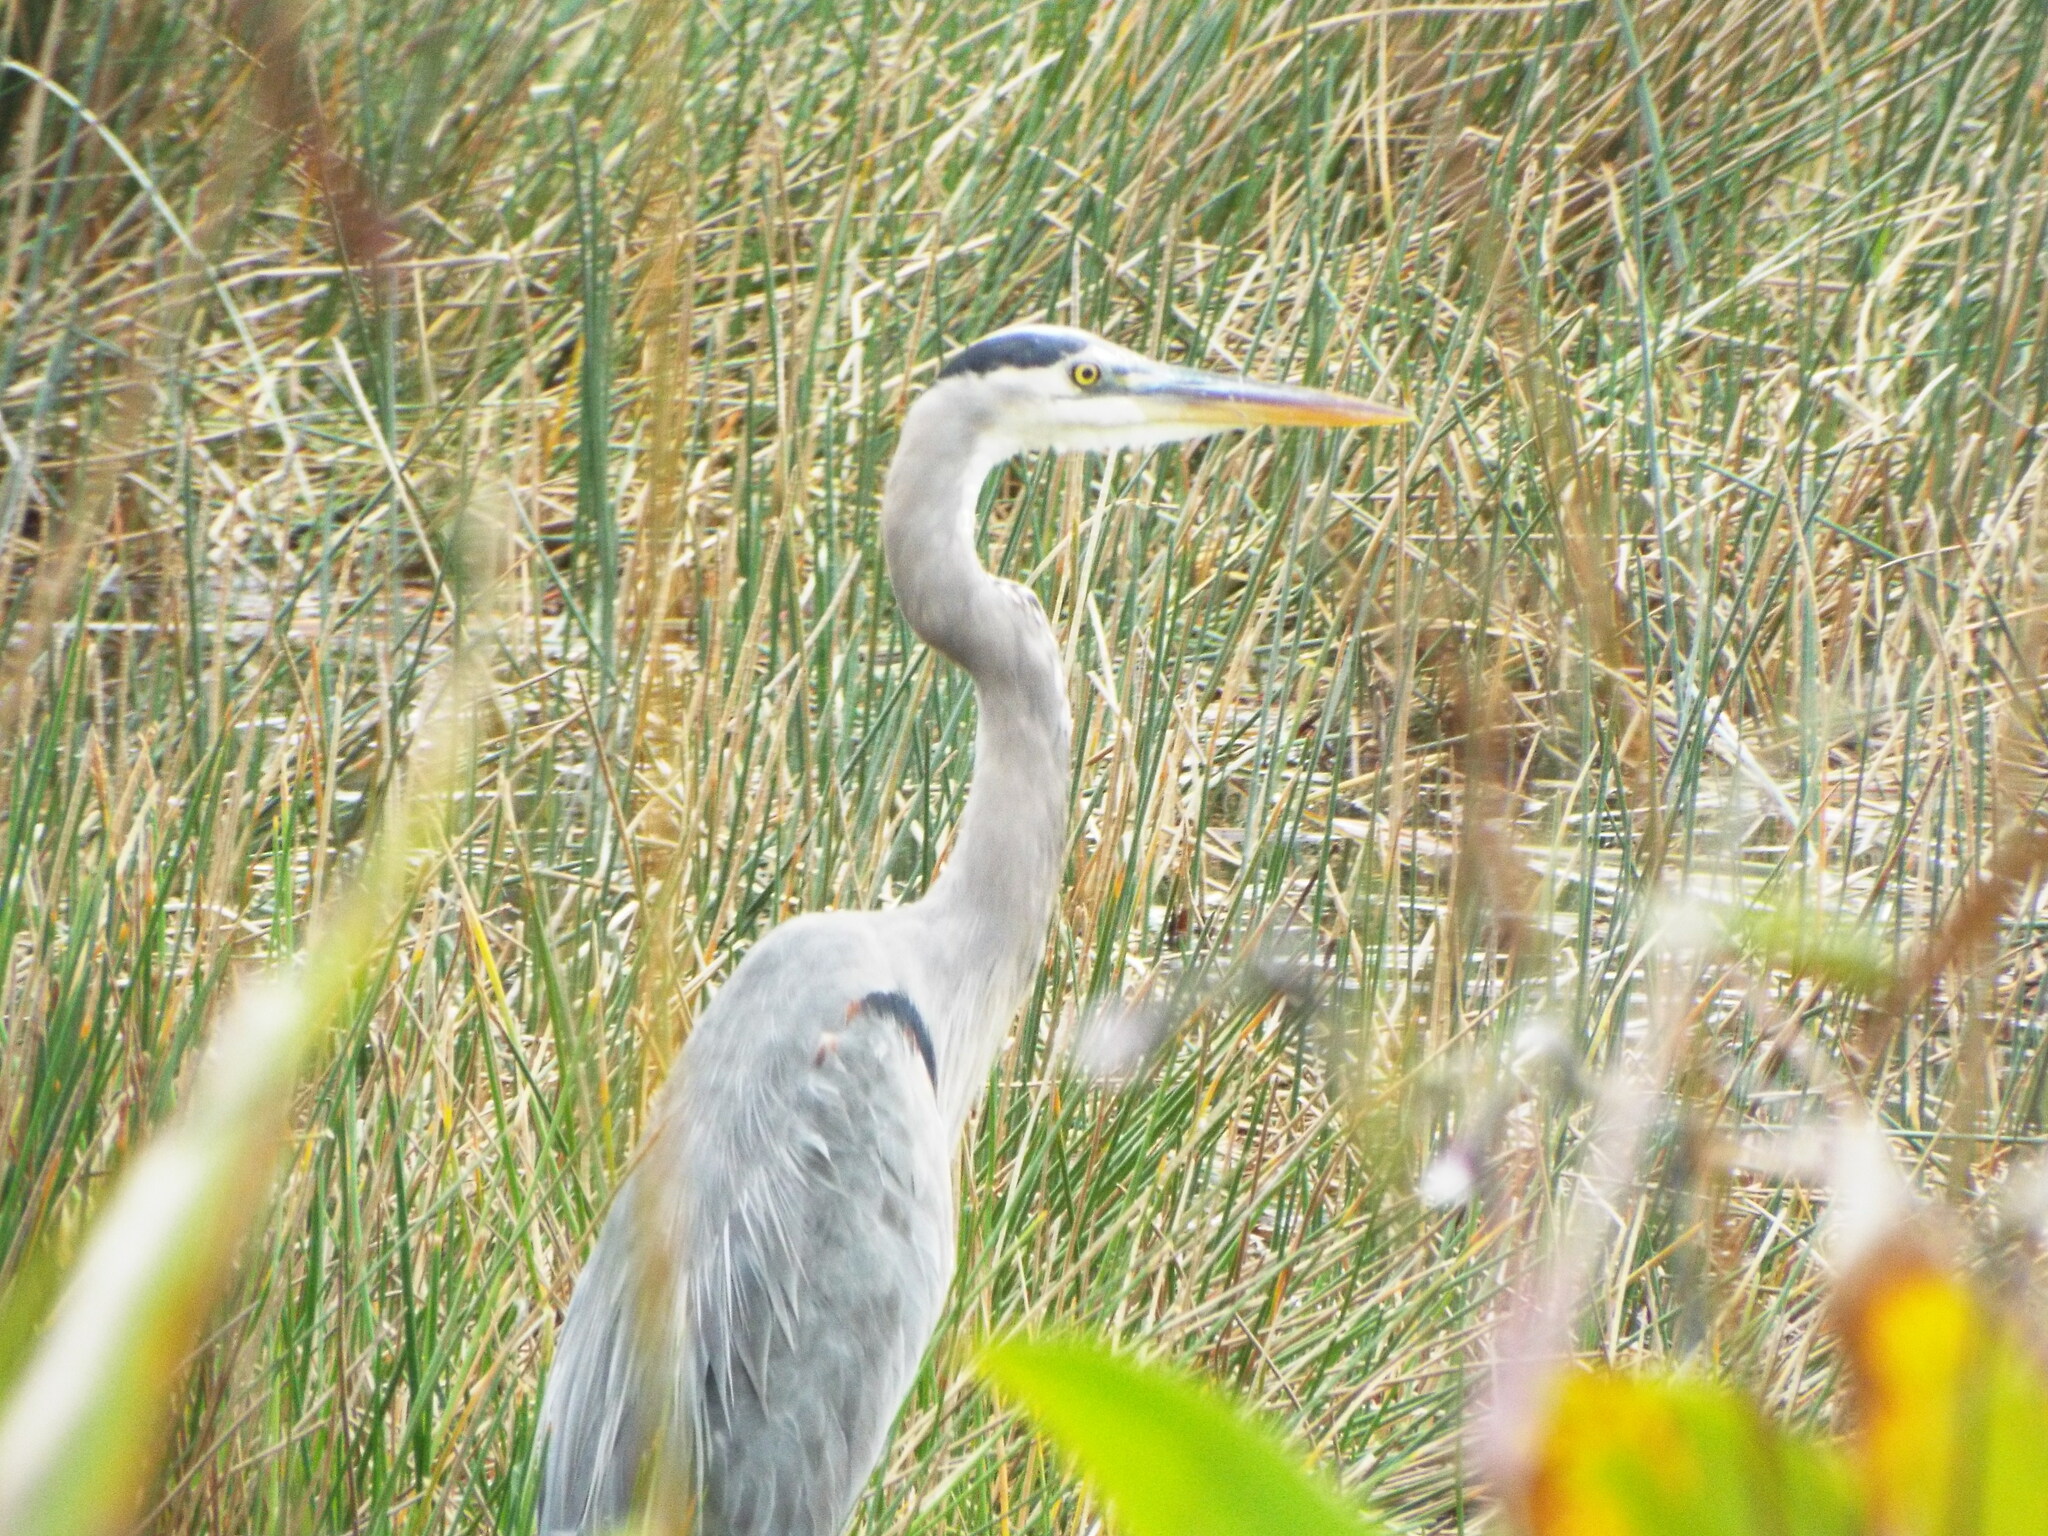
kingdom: Animalia
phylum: Chordata
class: Aves
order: Pelecaniformes
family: Ardeidae
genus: Ardea
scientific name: Ardea herodias
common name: Great blue heron
